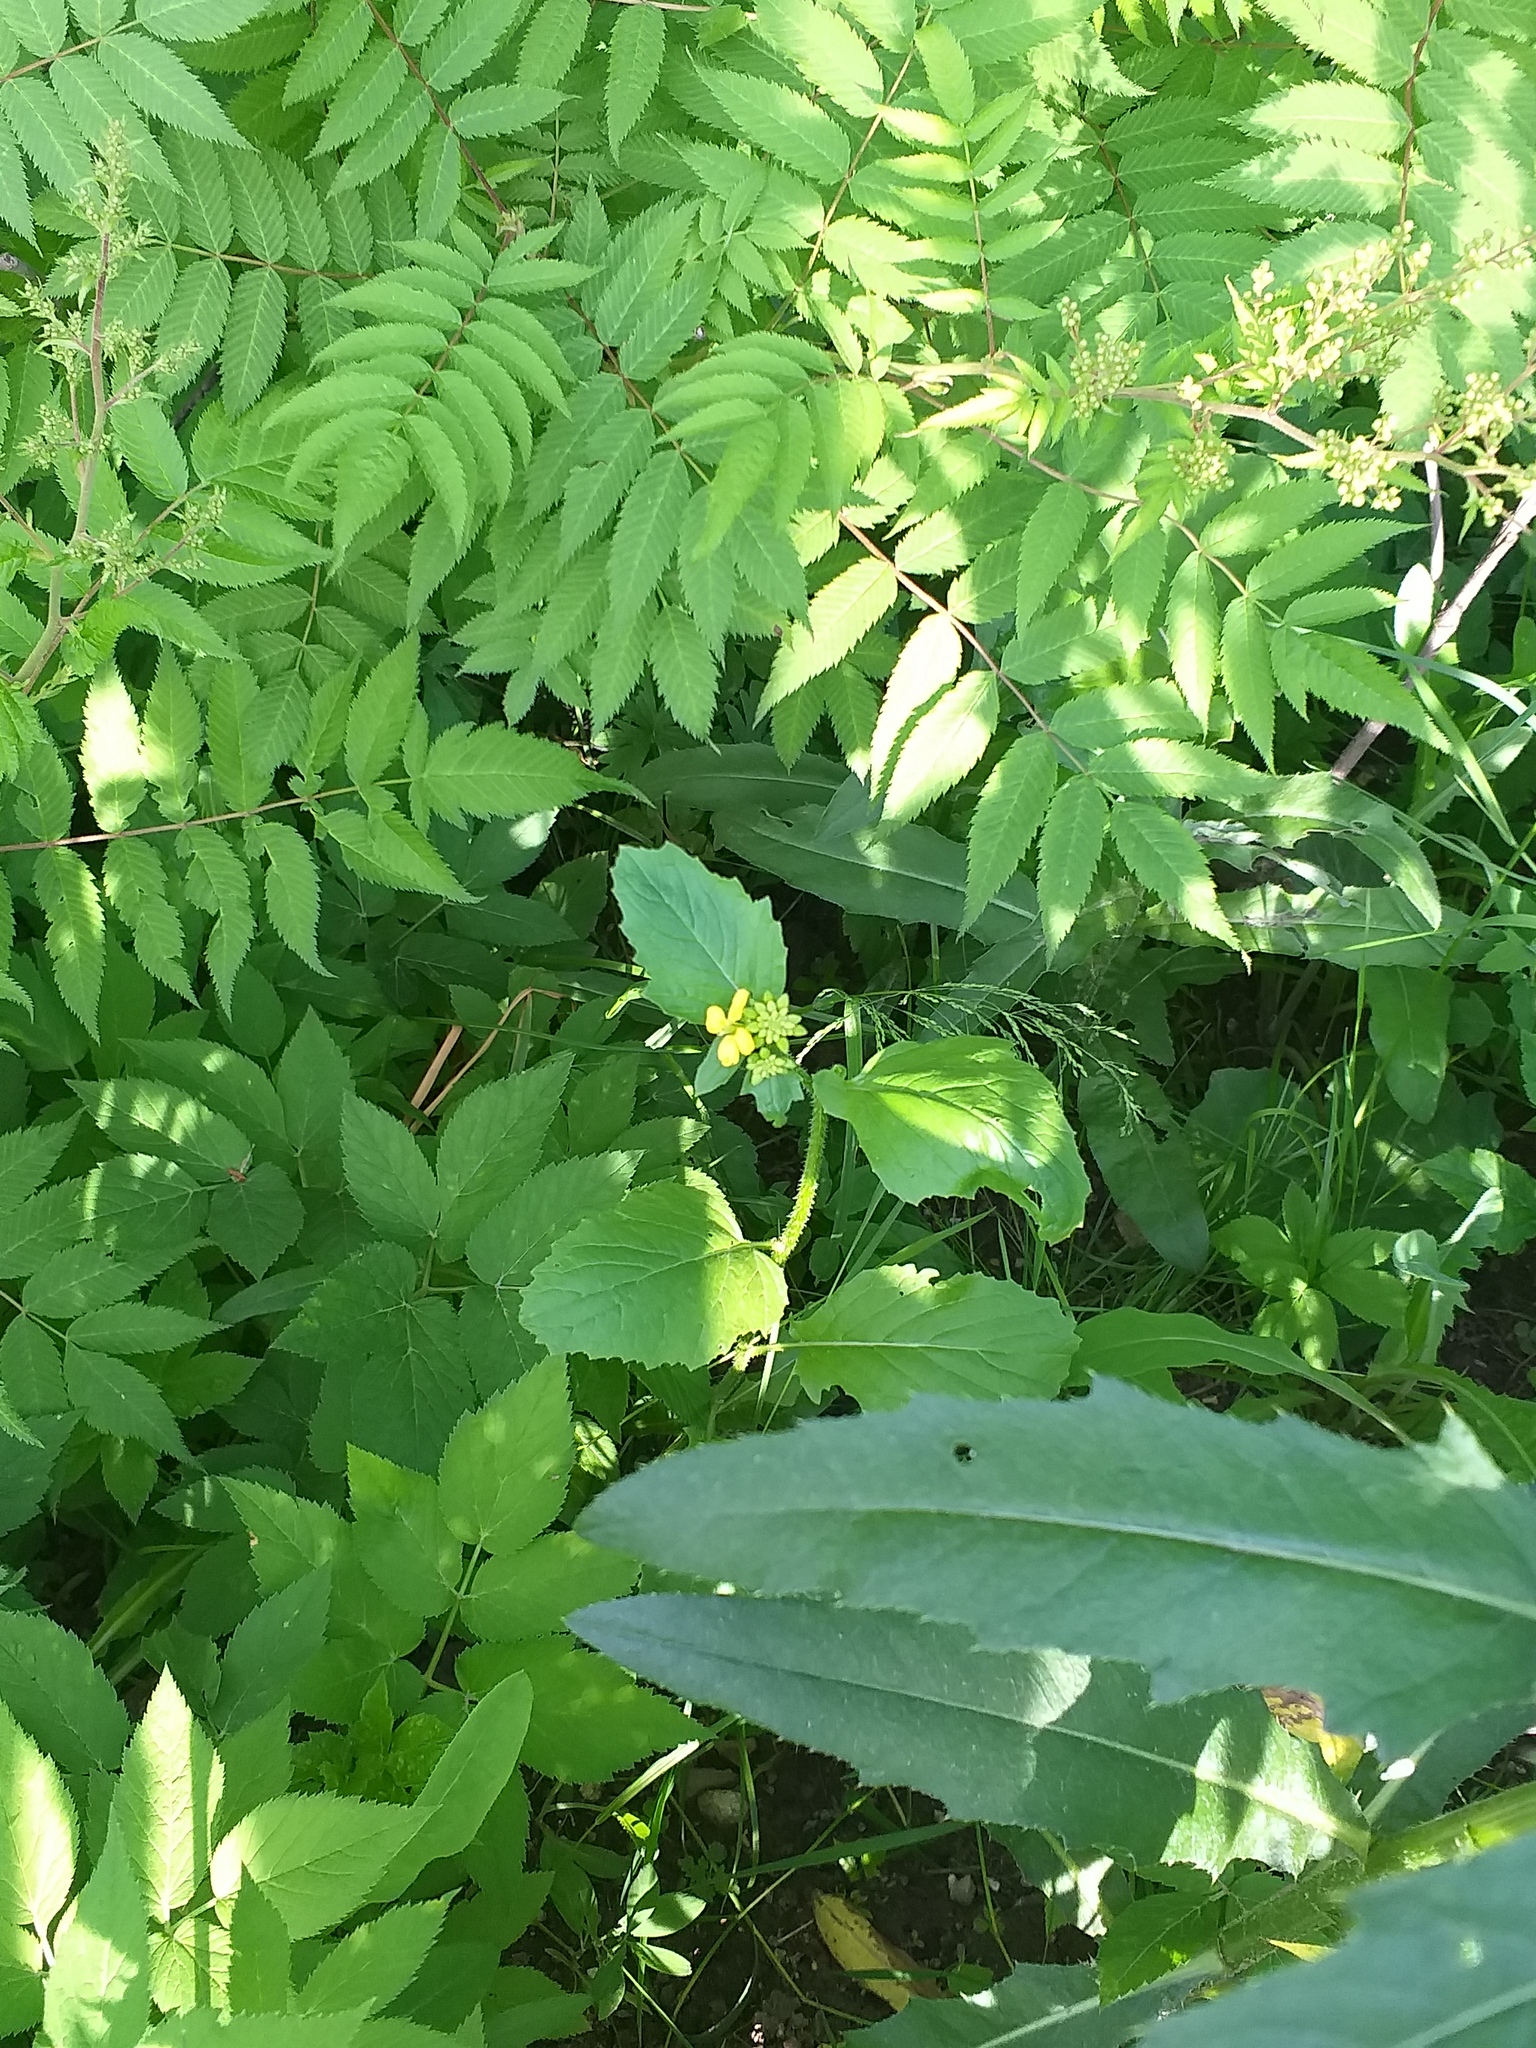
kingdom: Plantae
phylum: Tracheophyta
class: Magnoliopsida
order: Brassicales
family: Brassicaceae
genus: Sinapis
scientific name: Sinapis arvensis
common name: Charlock
